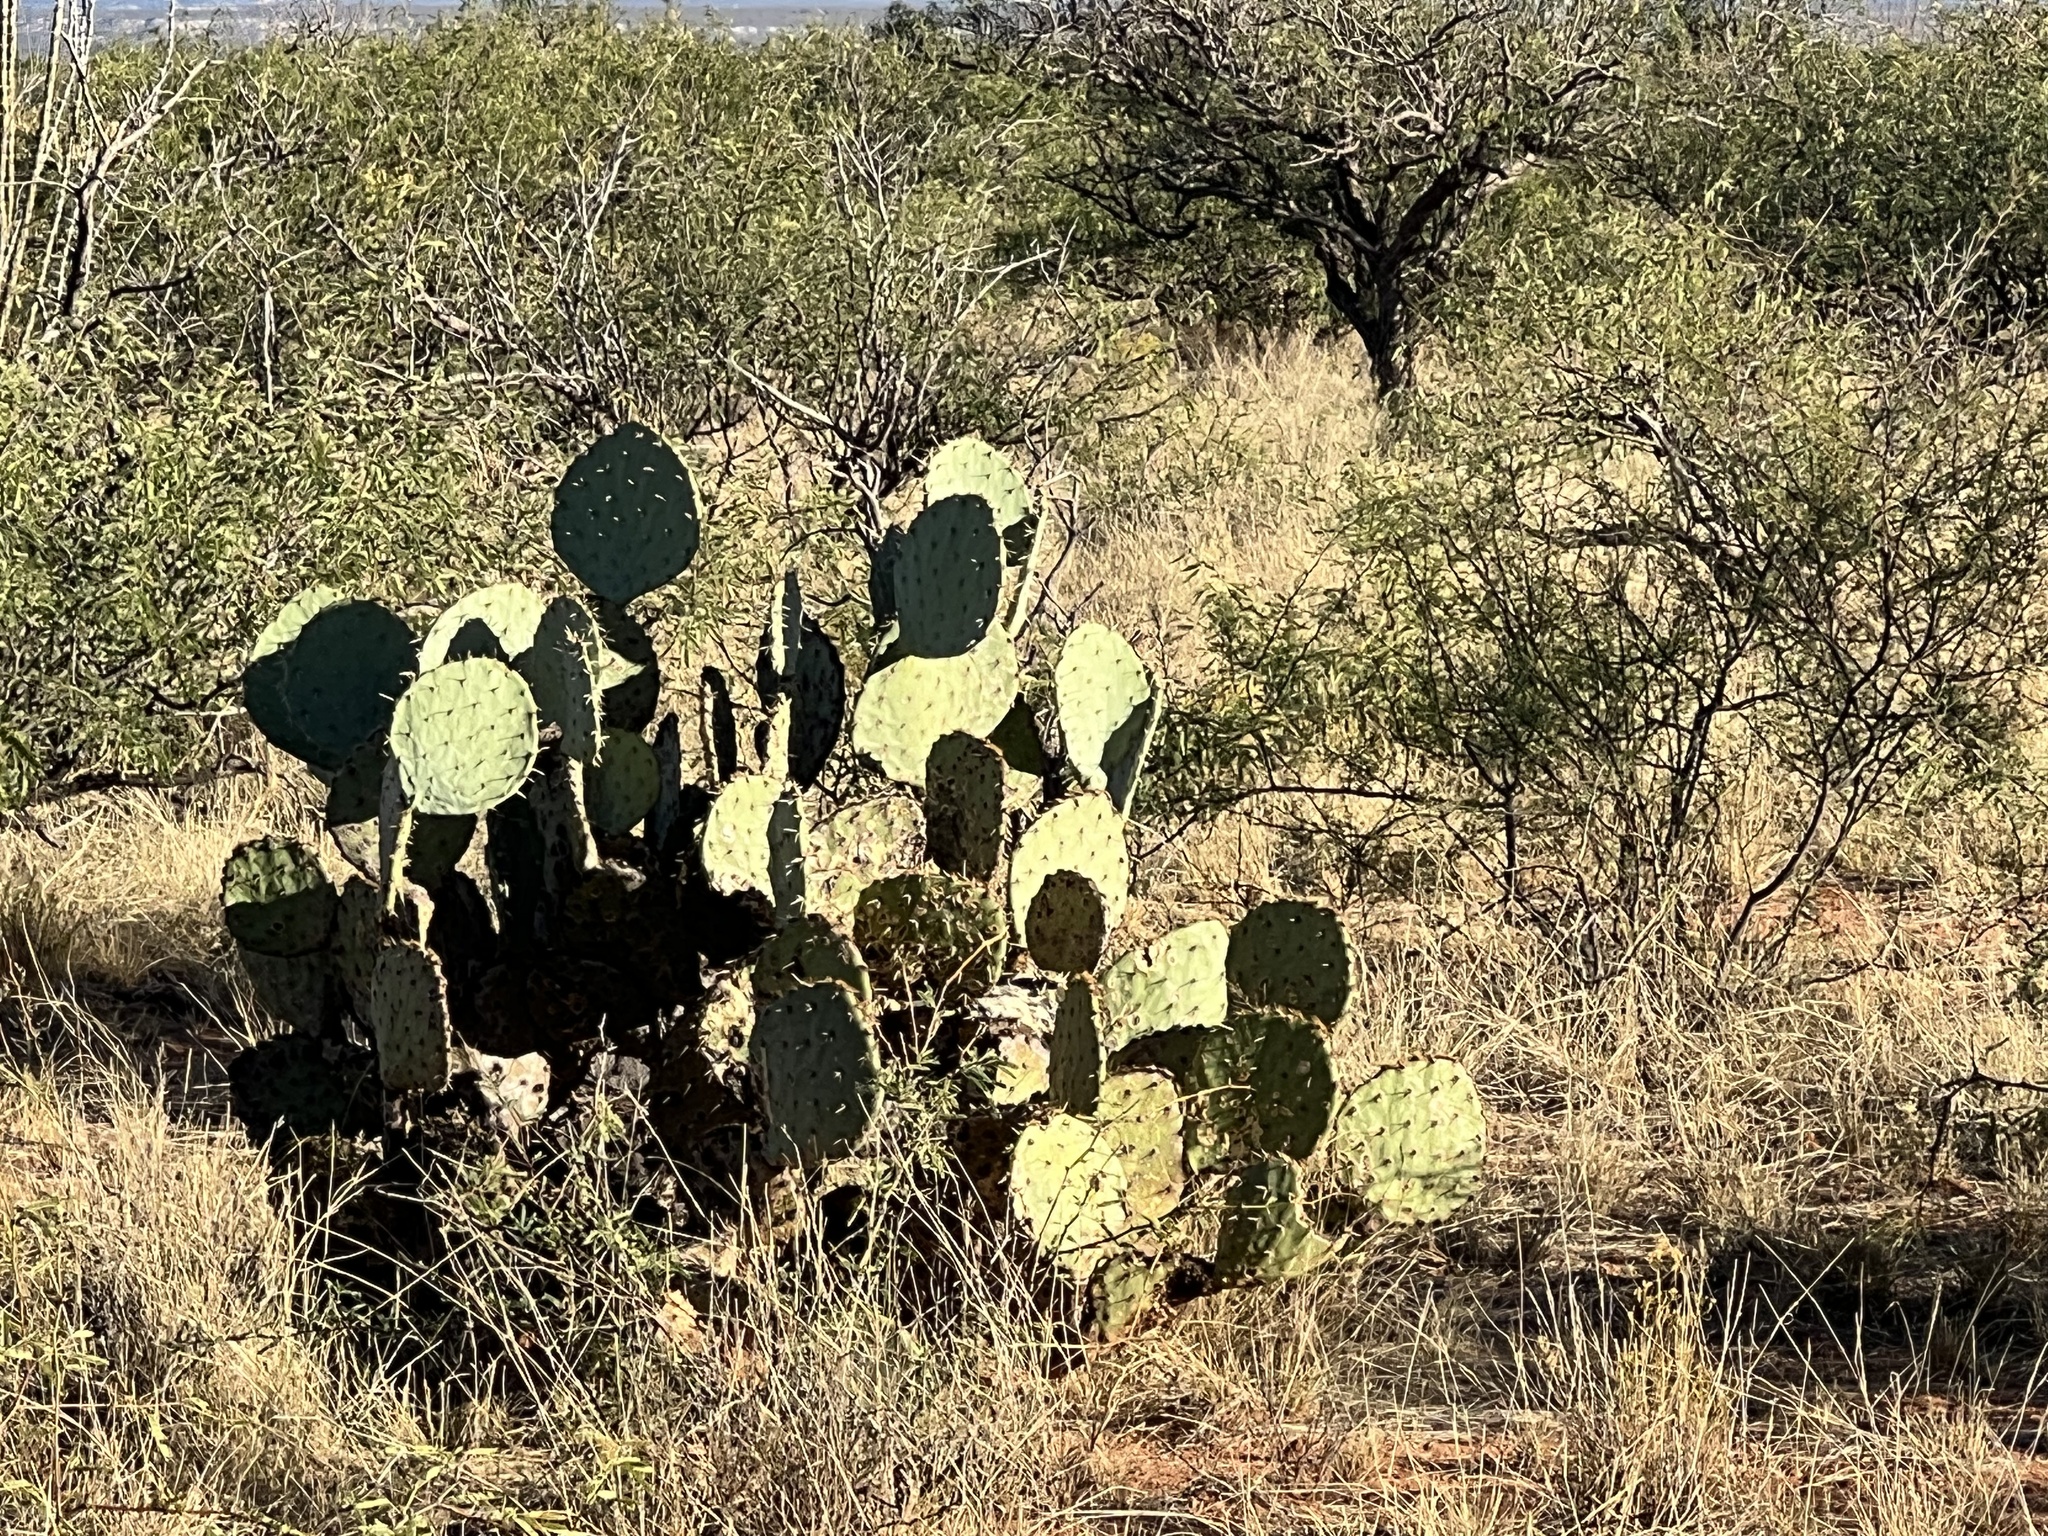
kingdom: Plantae
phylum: Tracheophyta
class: Magnoliopsida
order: Caryophyllales
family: Cactaceae
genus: Opuntia
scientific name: Opuntia engelmannii
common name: Cactus-apple
